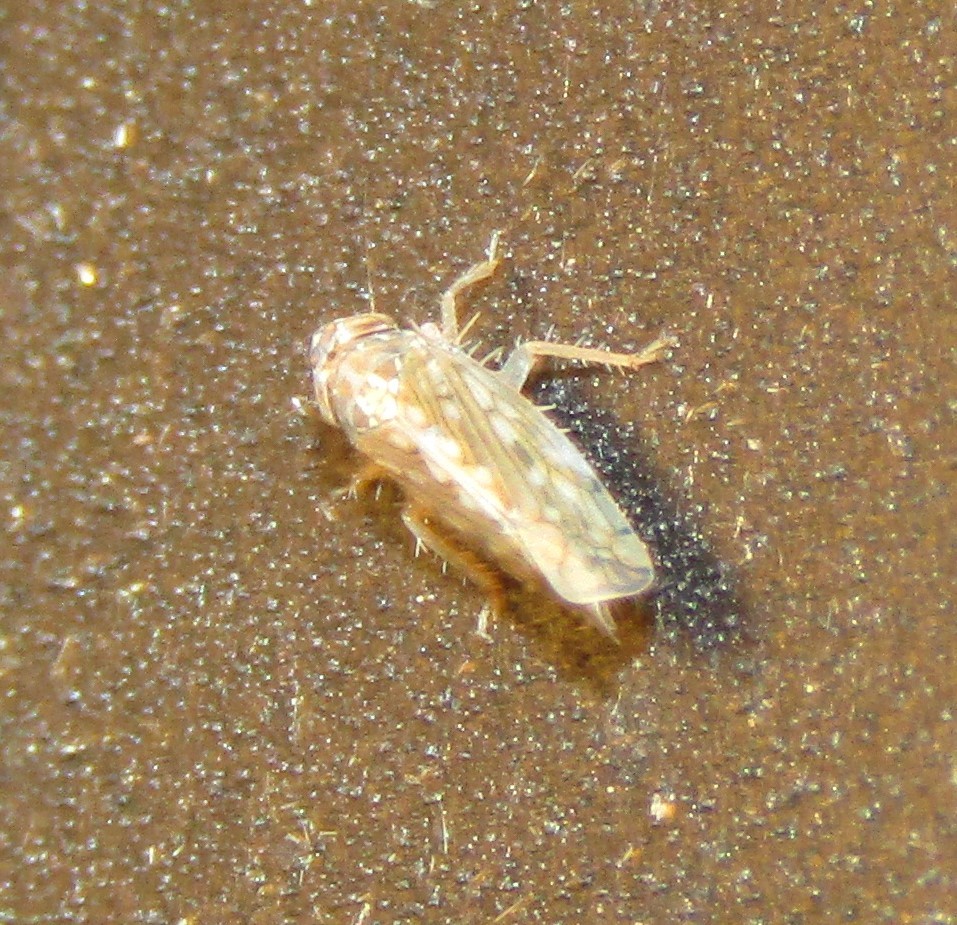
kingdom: Animalia
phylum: Arthropoda
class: Insecta
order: Hemiptera
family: Cicadellidae
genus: Osbornellus
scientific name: Osbornellus clarus
